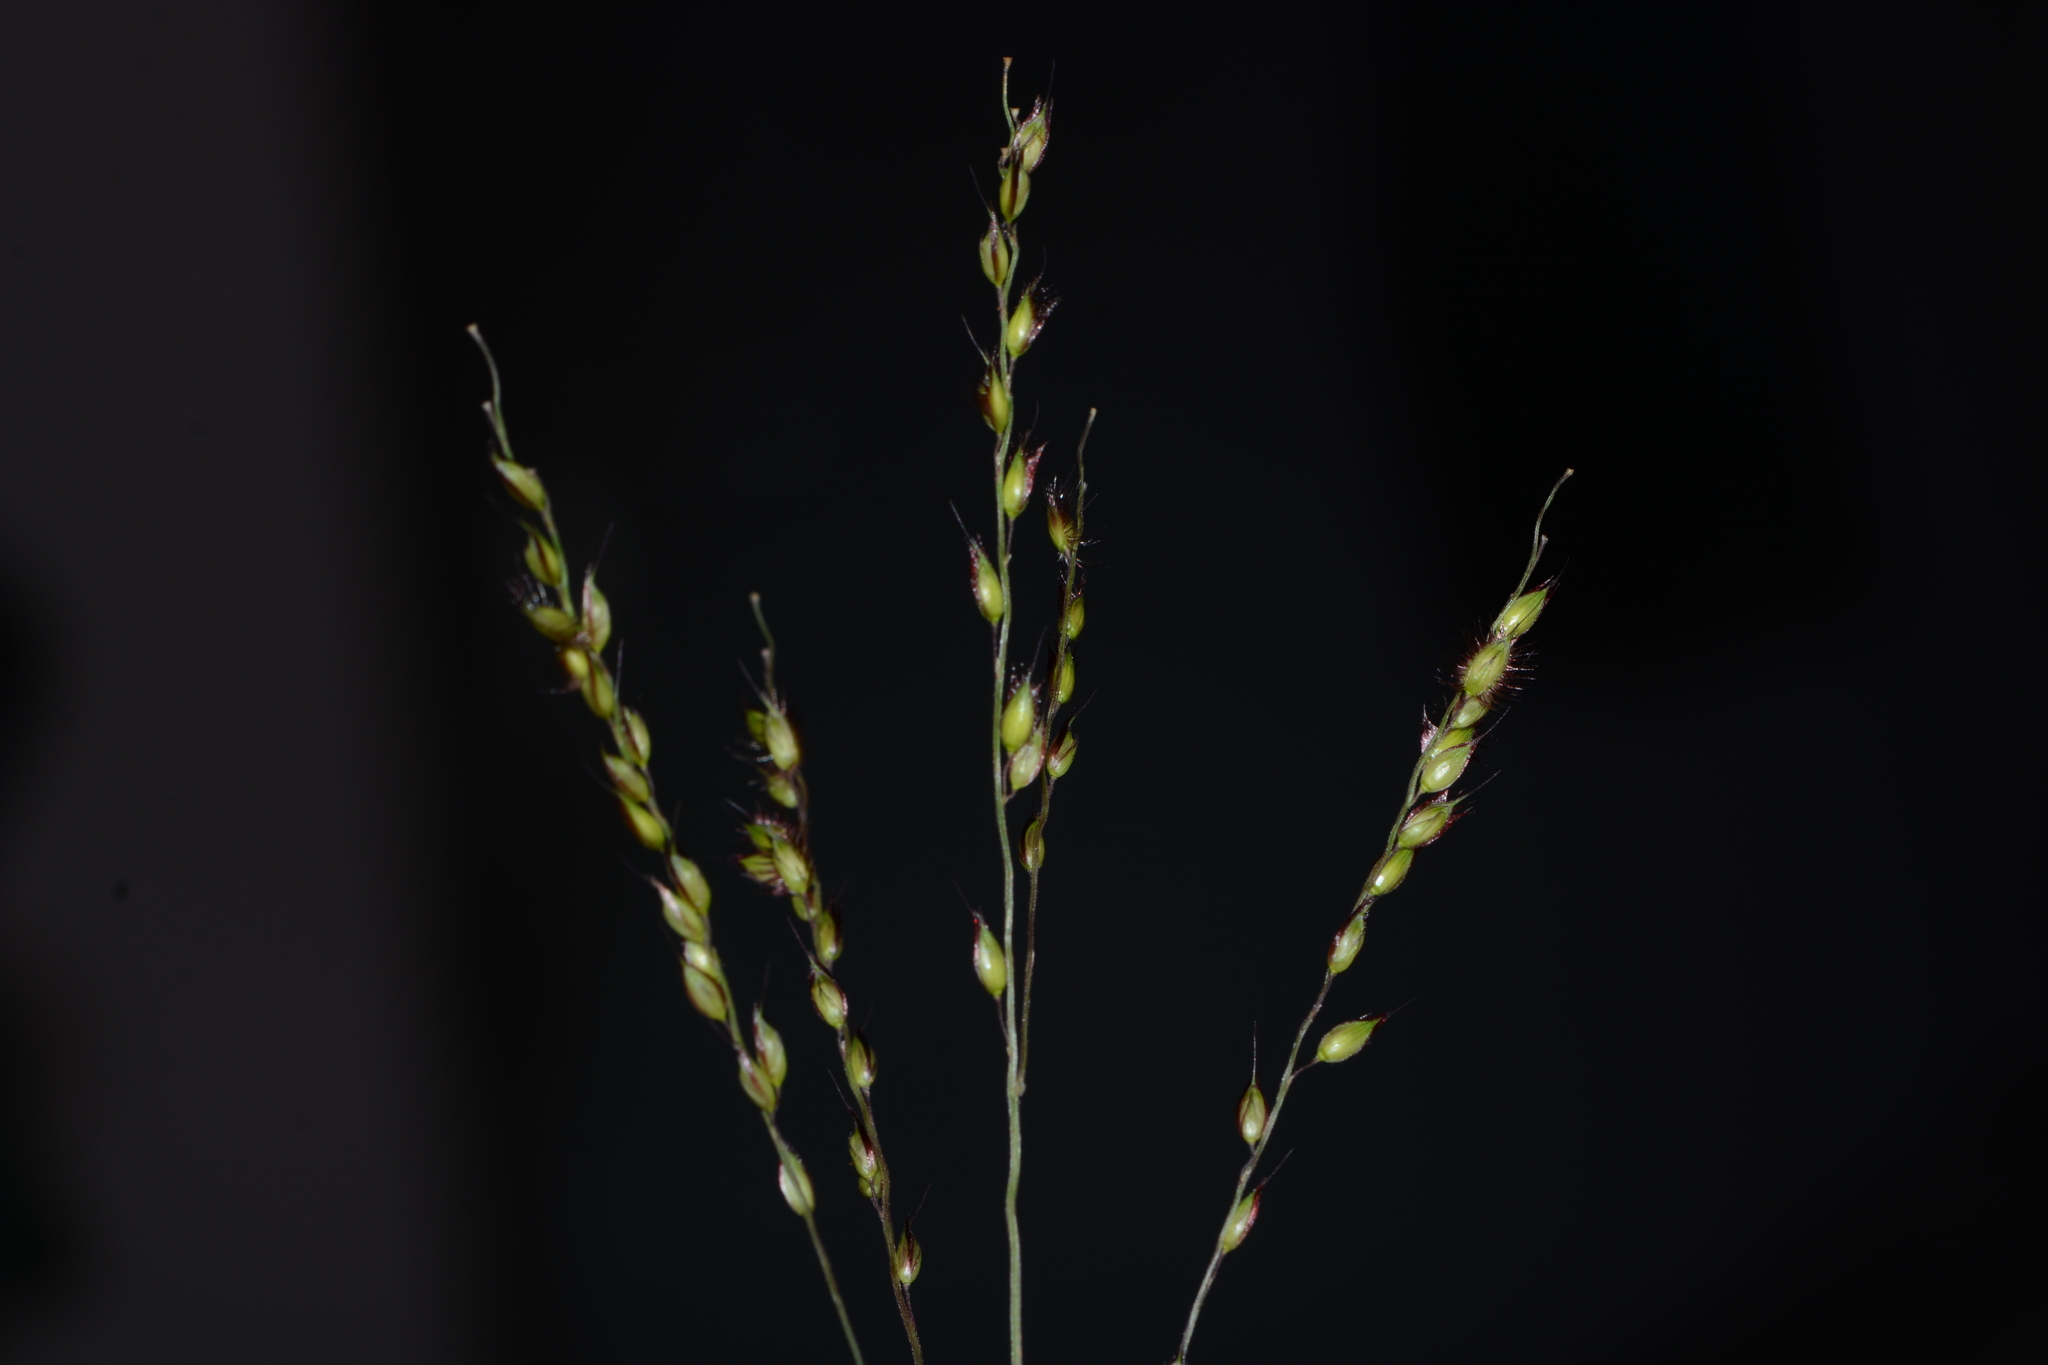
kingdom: Plantae
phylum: Tracheophyta
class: Liliopsida
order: Poales
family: Poaceae
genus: Alloteropsis
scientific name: Alloteropsis cimicina
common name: Summergrass
